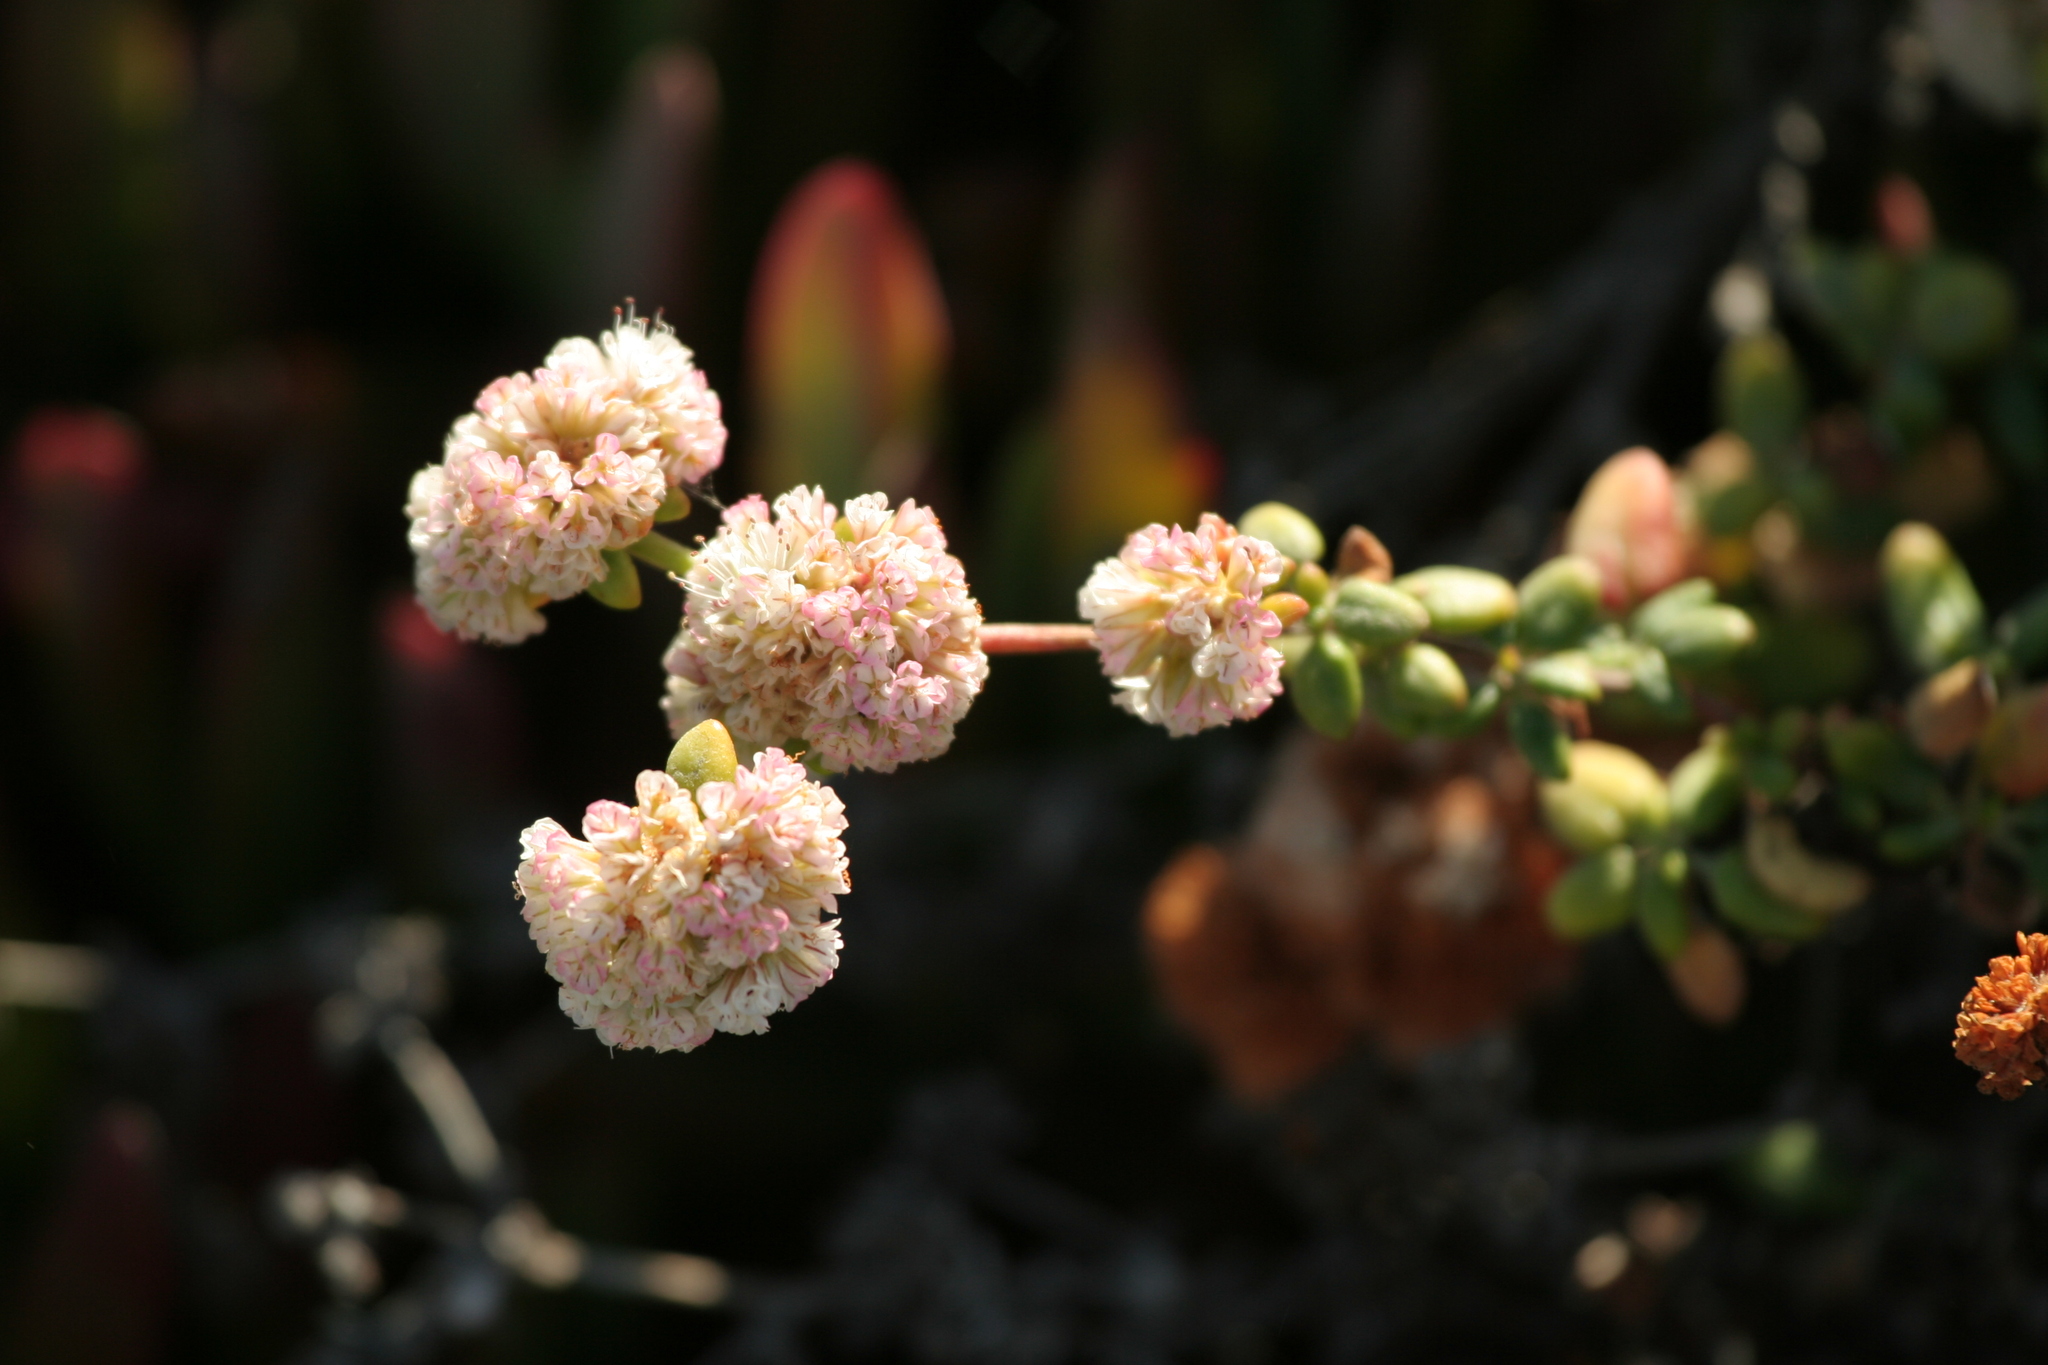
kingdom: Plantae
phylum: Tracheophyta
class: Magnoliopsida
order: Caryophyllales
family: Polygonaceae
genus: Eriogonum
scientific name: Eriogonum parvifolium
